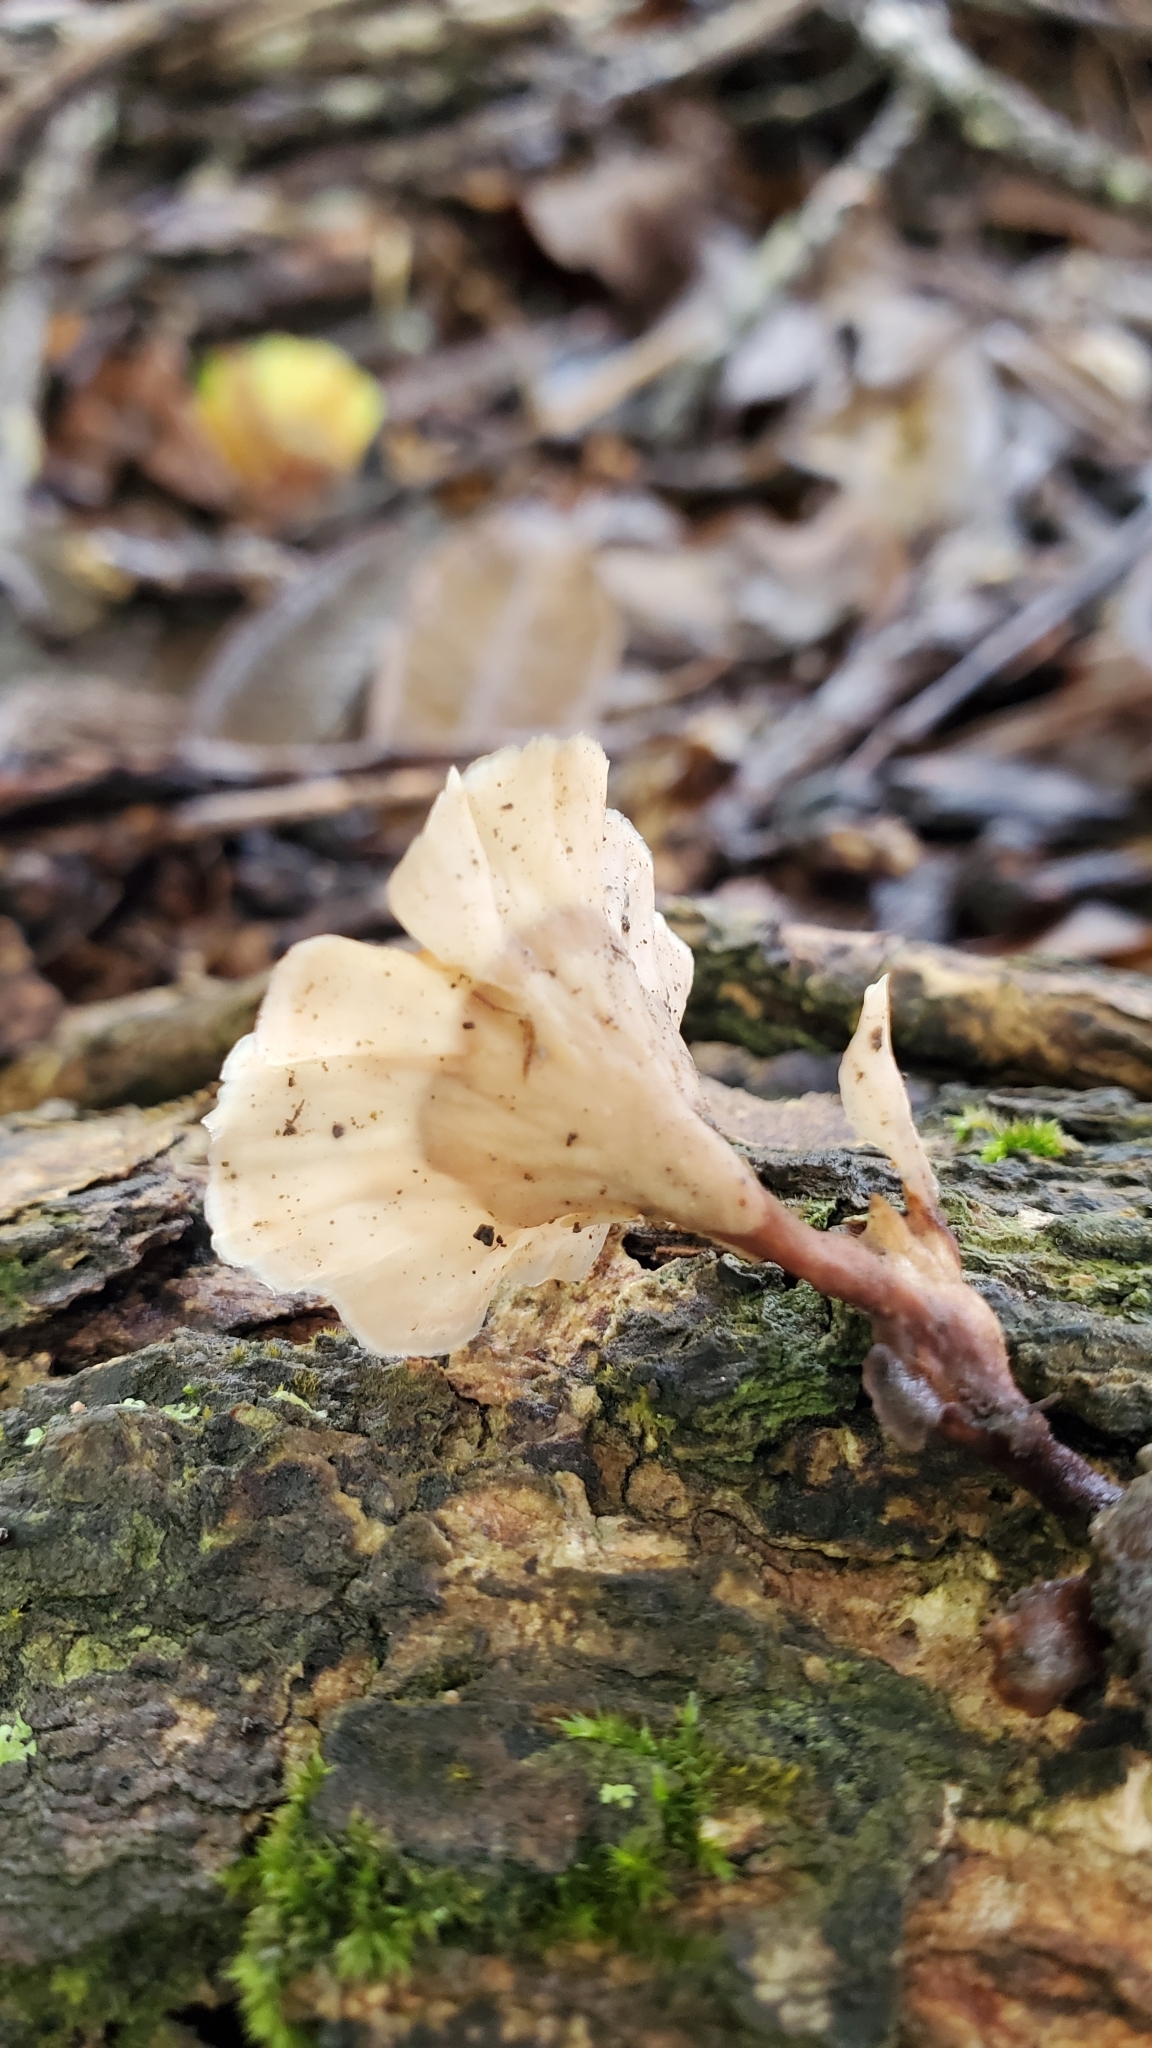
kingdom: Fungi
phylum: Basidiomycota
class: Agaricomycetes
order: Polyporales
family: Podoscyphaceae
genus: Podoscypha
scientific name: Podoscypha petalodes
